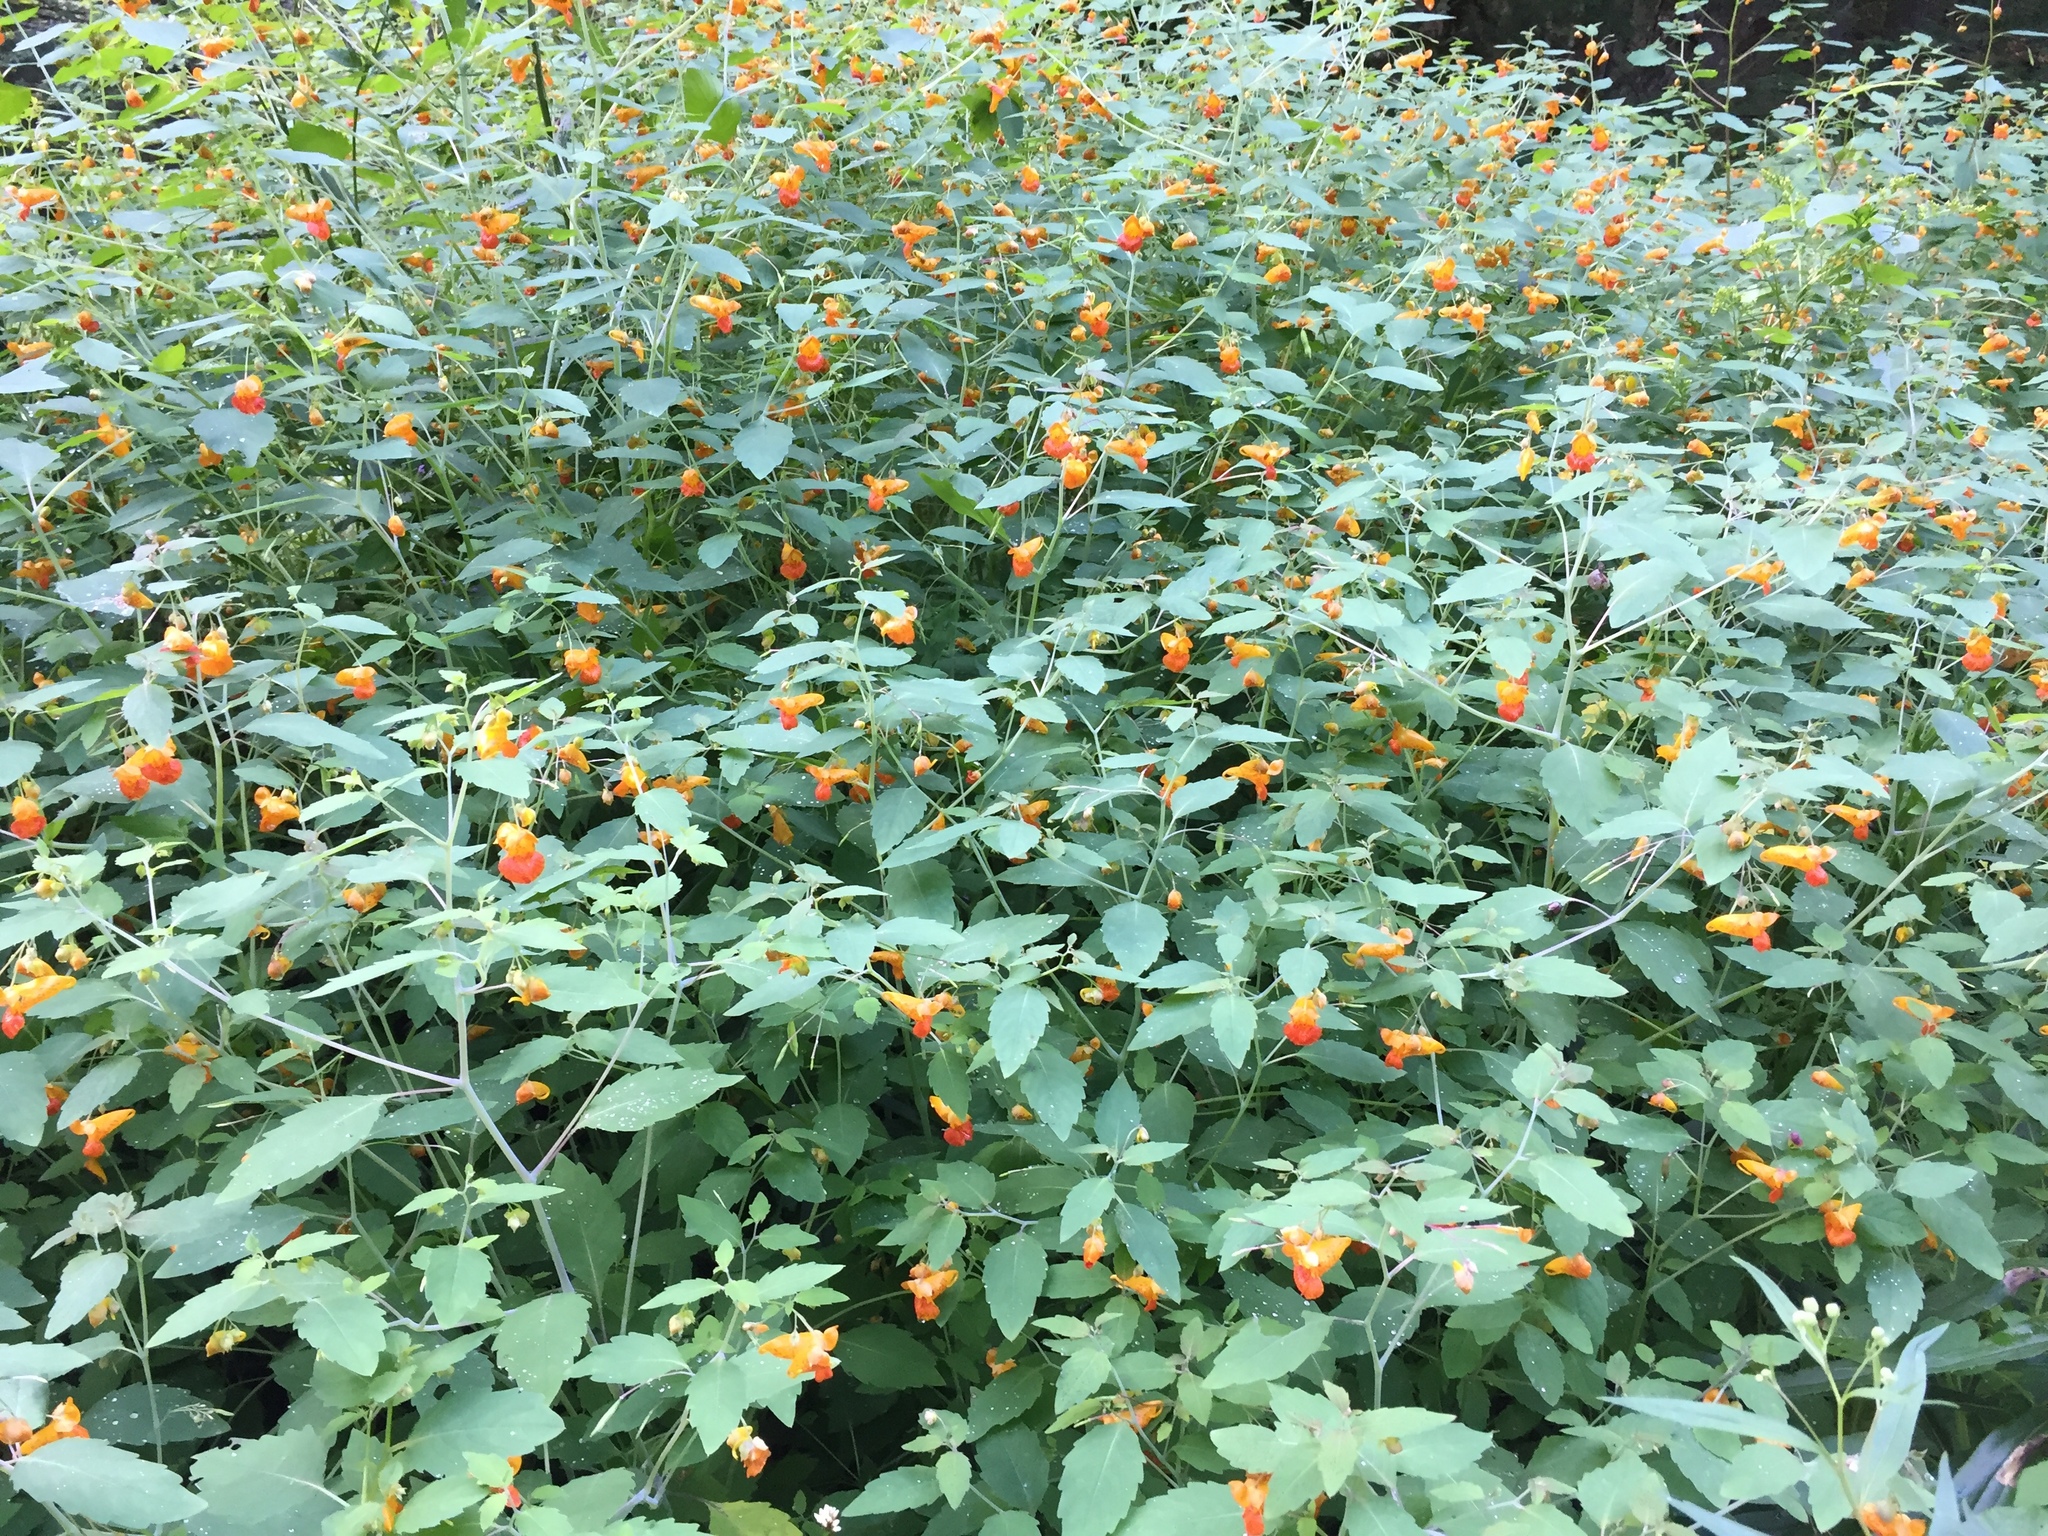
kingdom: Plantae
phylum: Tracheophyta
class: Magnoliopsida
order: Ericales
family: Balsaminaceae
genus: Impatiens
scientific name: Impatiens capensis
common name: Orange balsam
